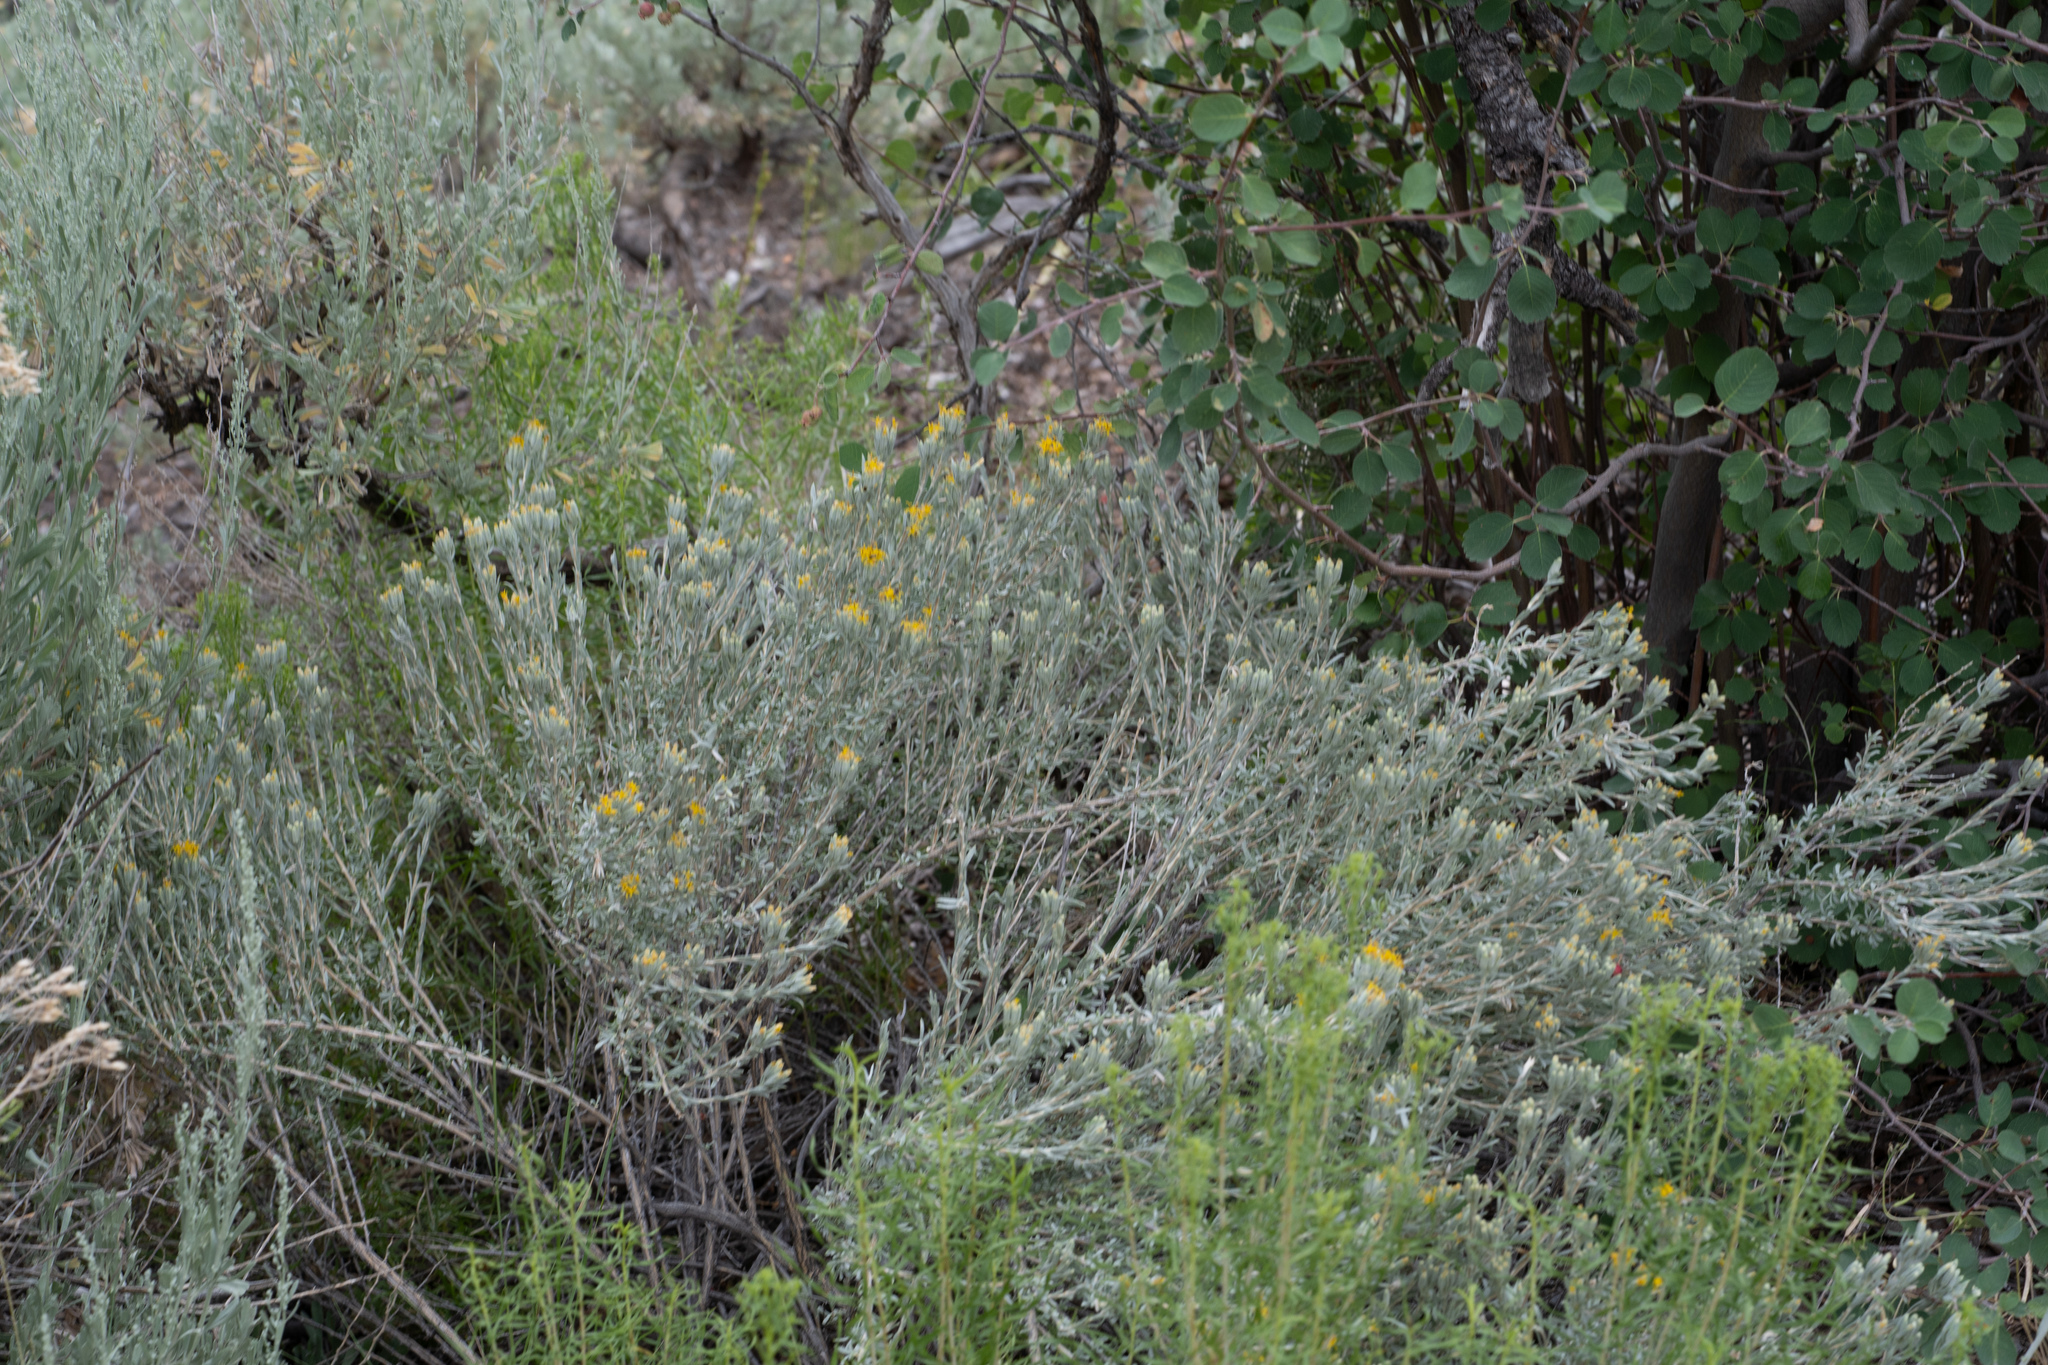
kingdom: Plantae
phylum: Tracheophyta
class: Magnoliopsida
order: Asterales
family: Asteraceae
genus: Tetradymia
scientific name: Tetradymia canescens
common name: Spineless horsebrush
